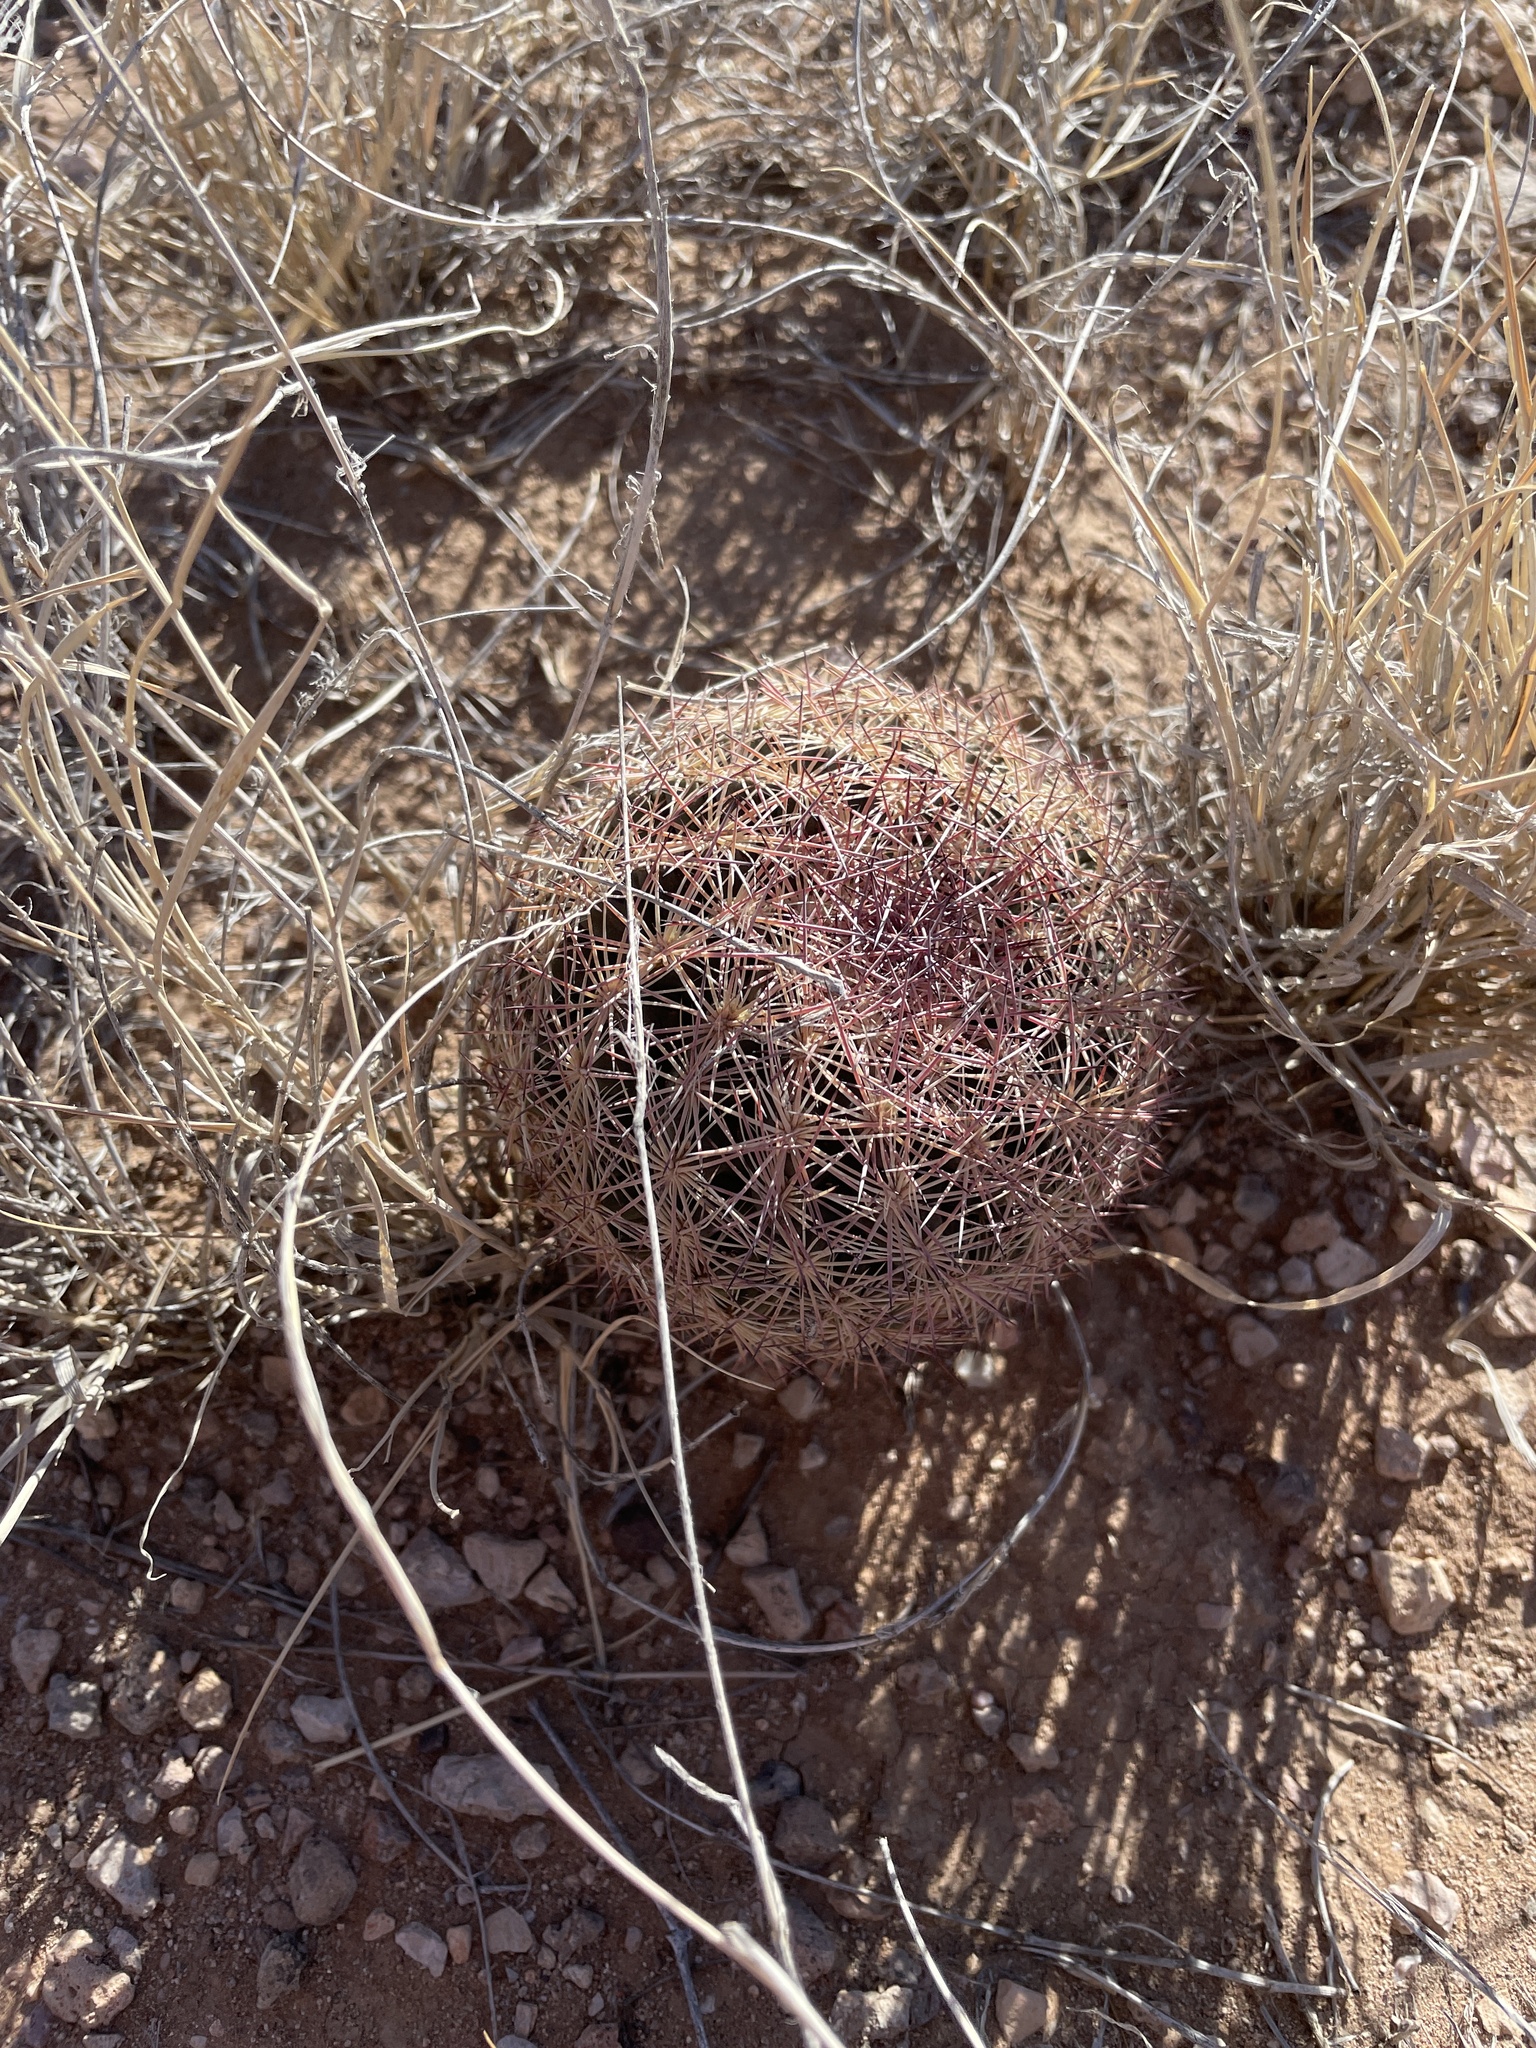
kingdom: Plantae
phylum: Tracheophyta
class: Magnoliopsida
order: Caryophyllales
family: Cactaceae
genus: Sclerocactus
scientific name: Sclerocactus intertextus
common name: White fish-hook cactus
